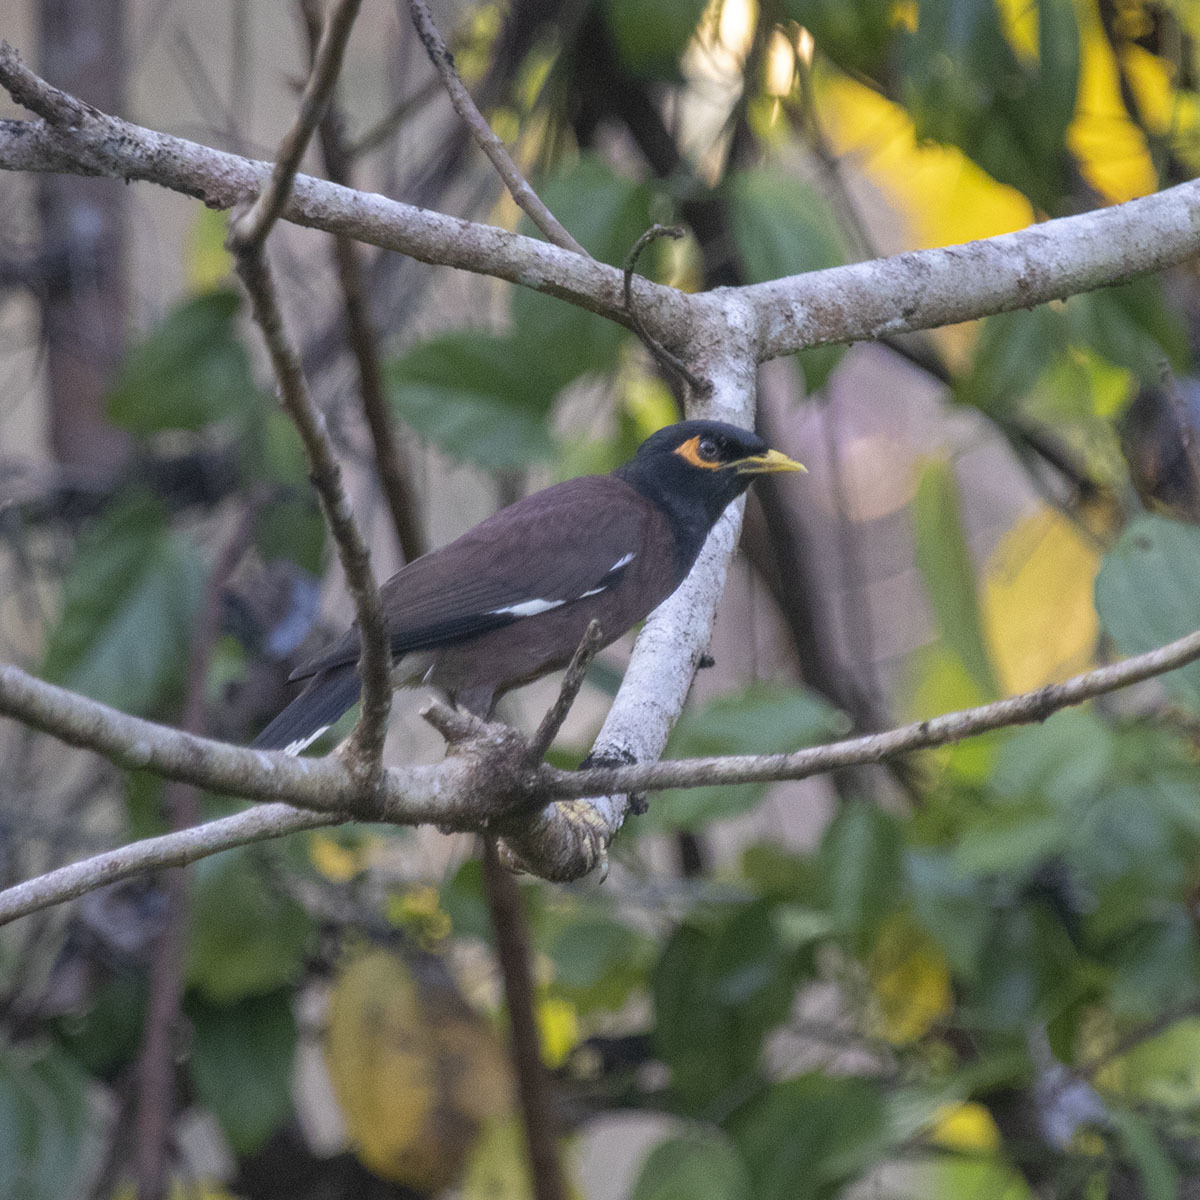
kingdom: Animalia
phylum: Chordata
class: Aves
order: Passeriformes
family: Sturnidae
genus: Acridotheres
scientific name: Acridotheres tristis
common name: Common myna
